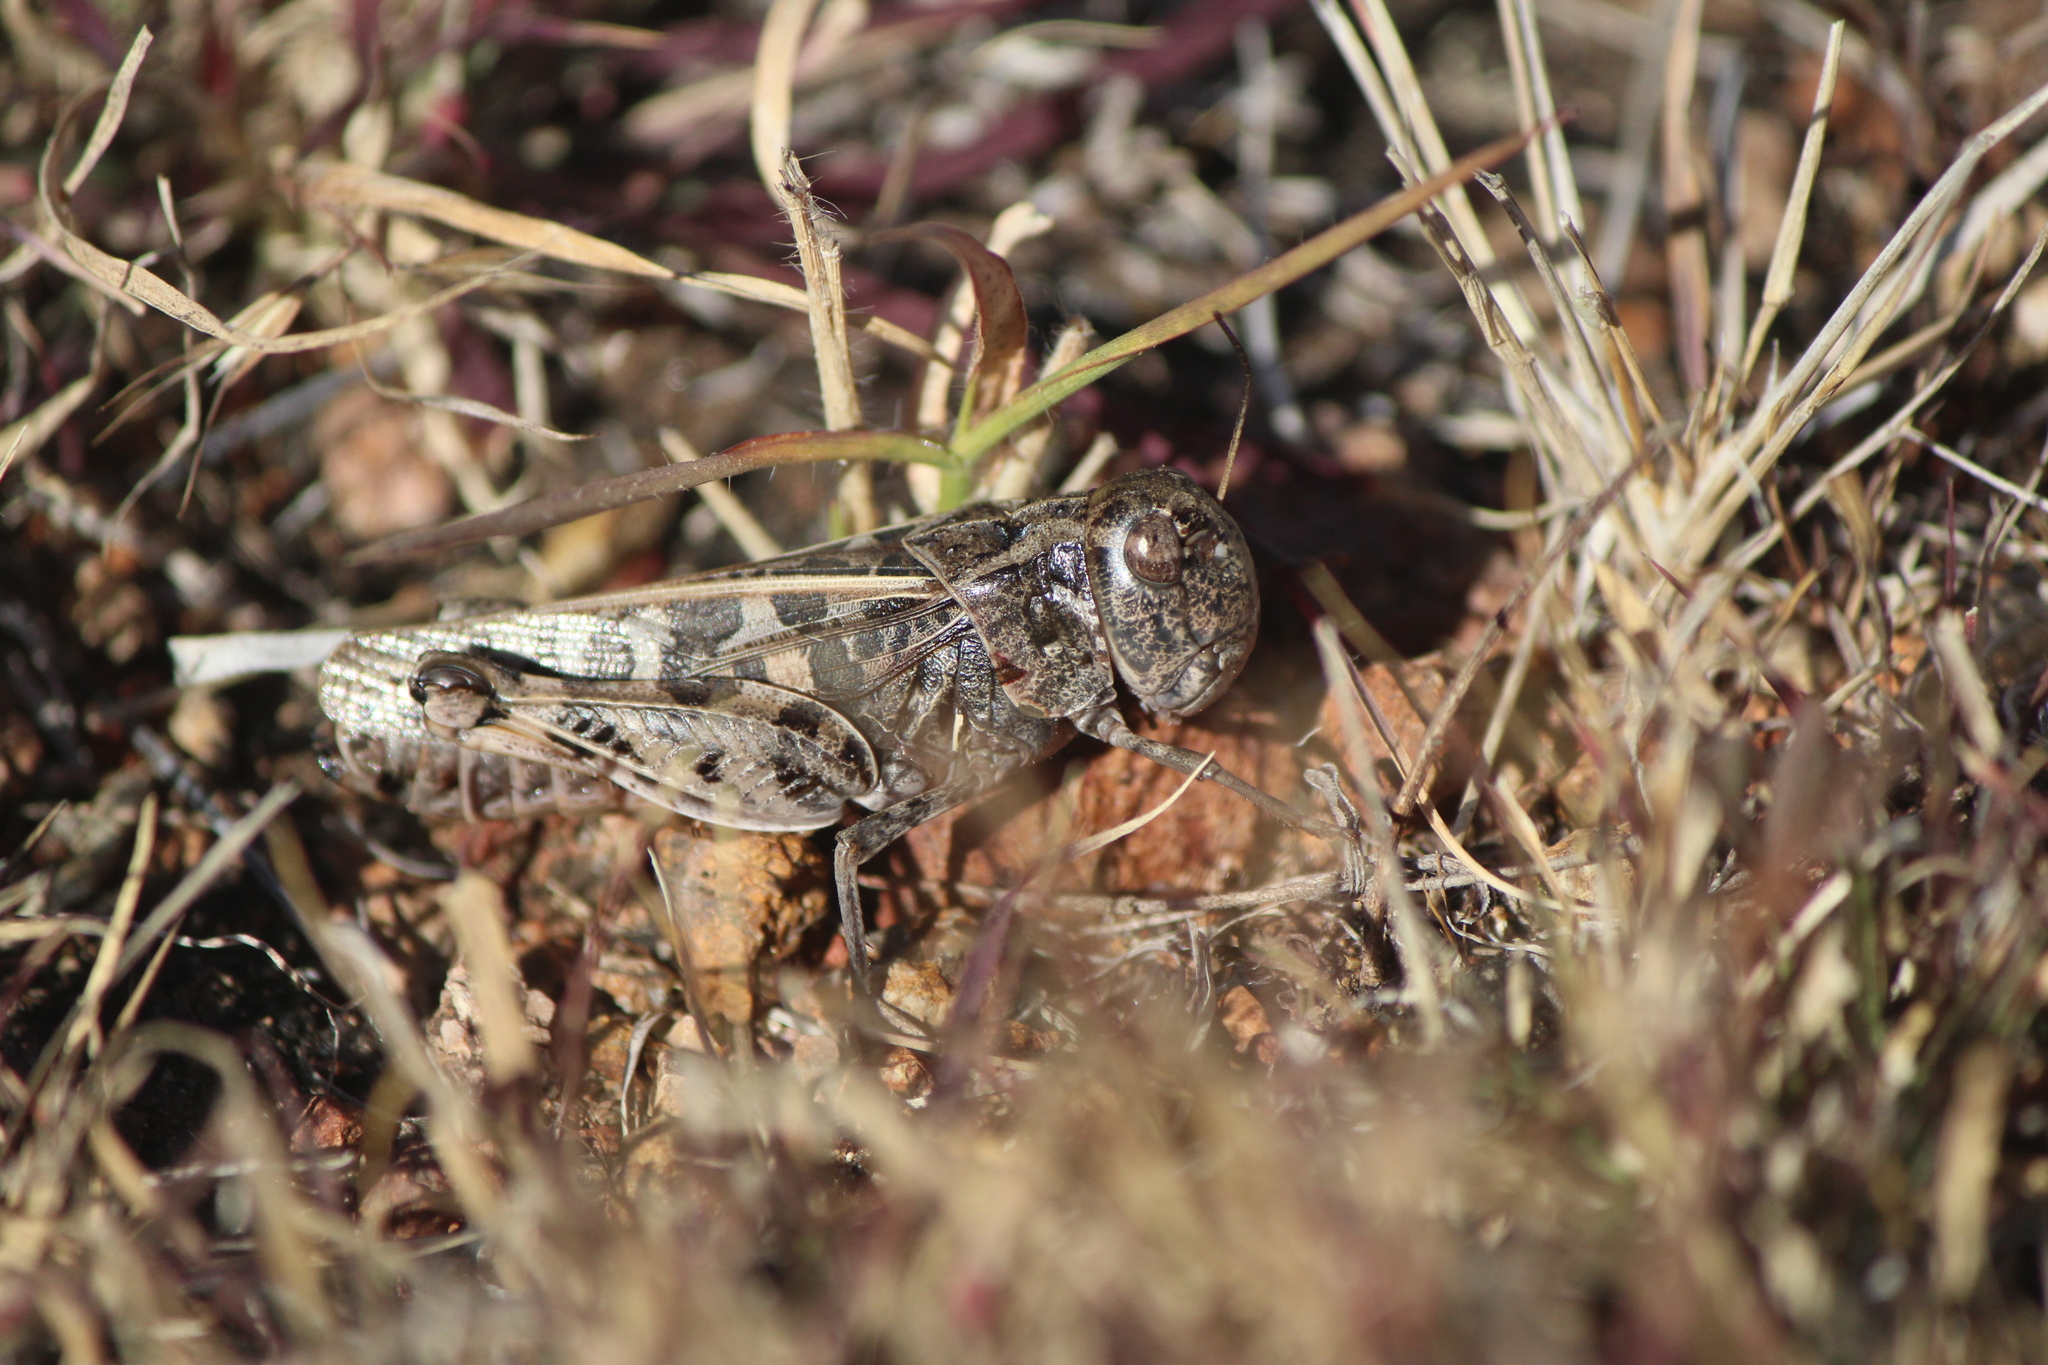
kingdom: Animalia
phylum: Arthropoda
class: Insecta
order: Orthoptera
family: Acrididae
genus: Hippiscus
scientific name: Hippiscus ocelote
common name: Wrinkled grasshopper
